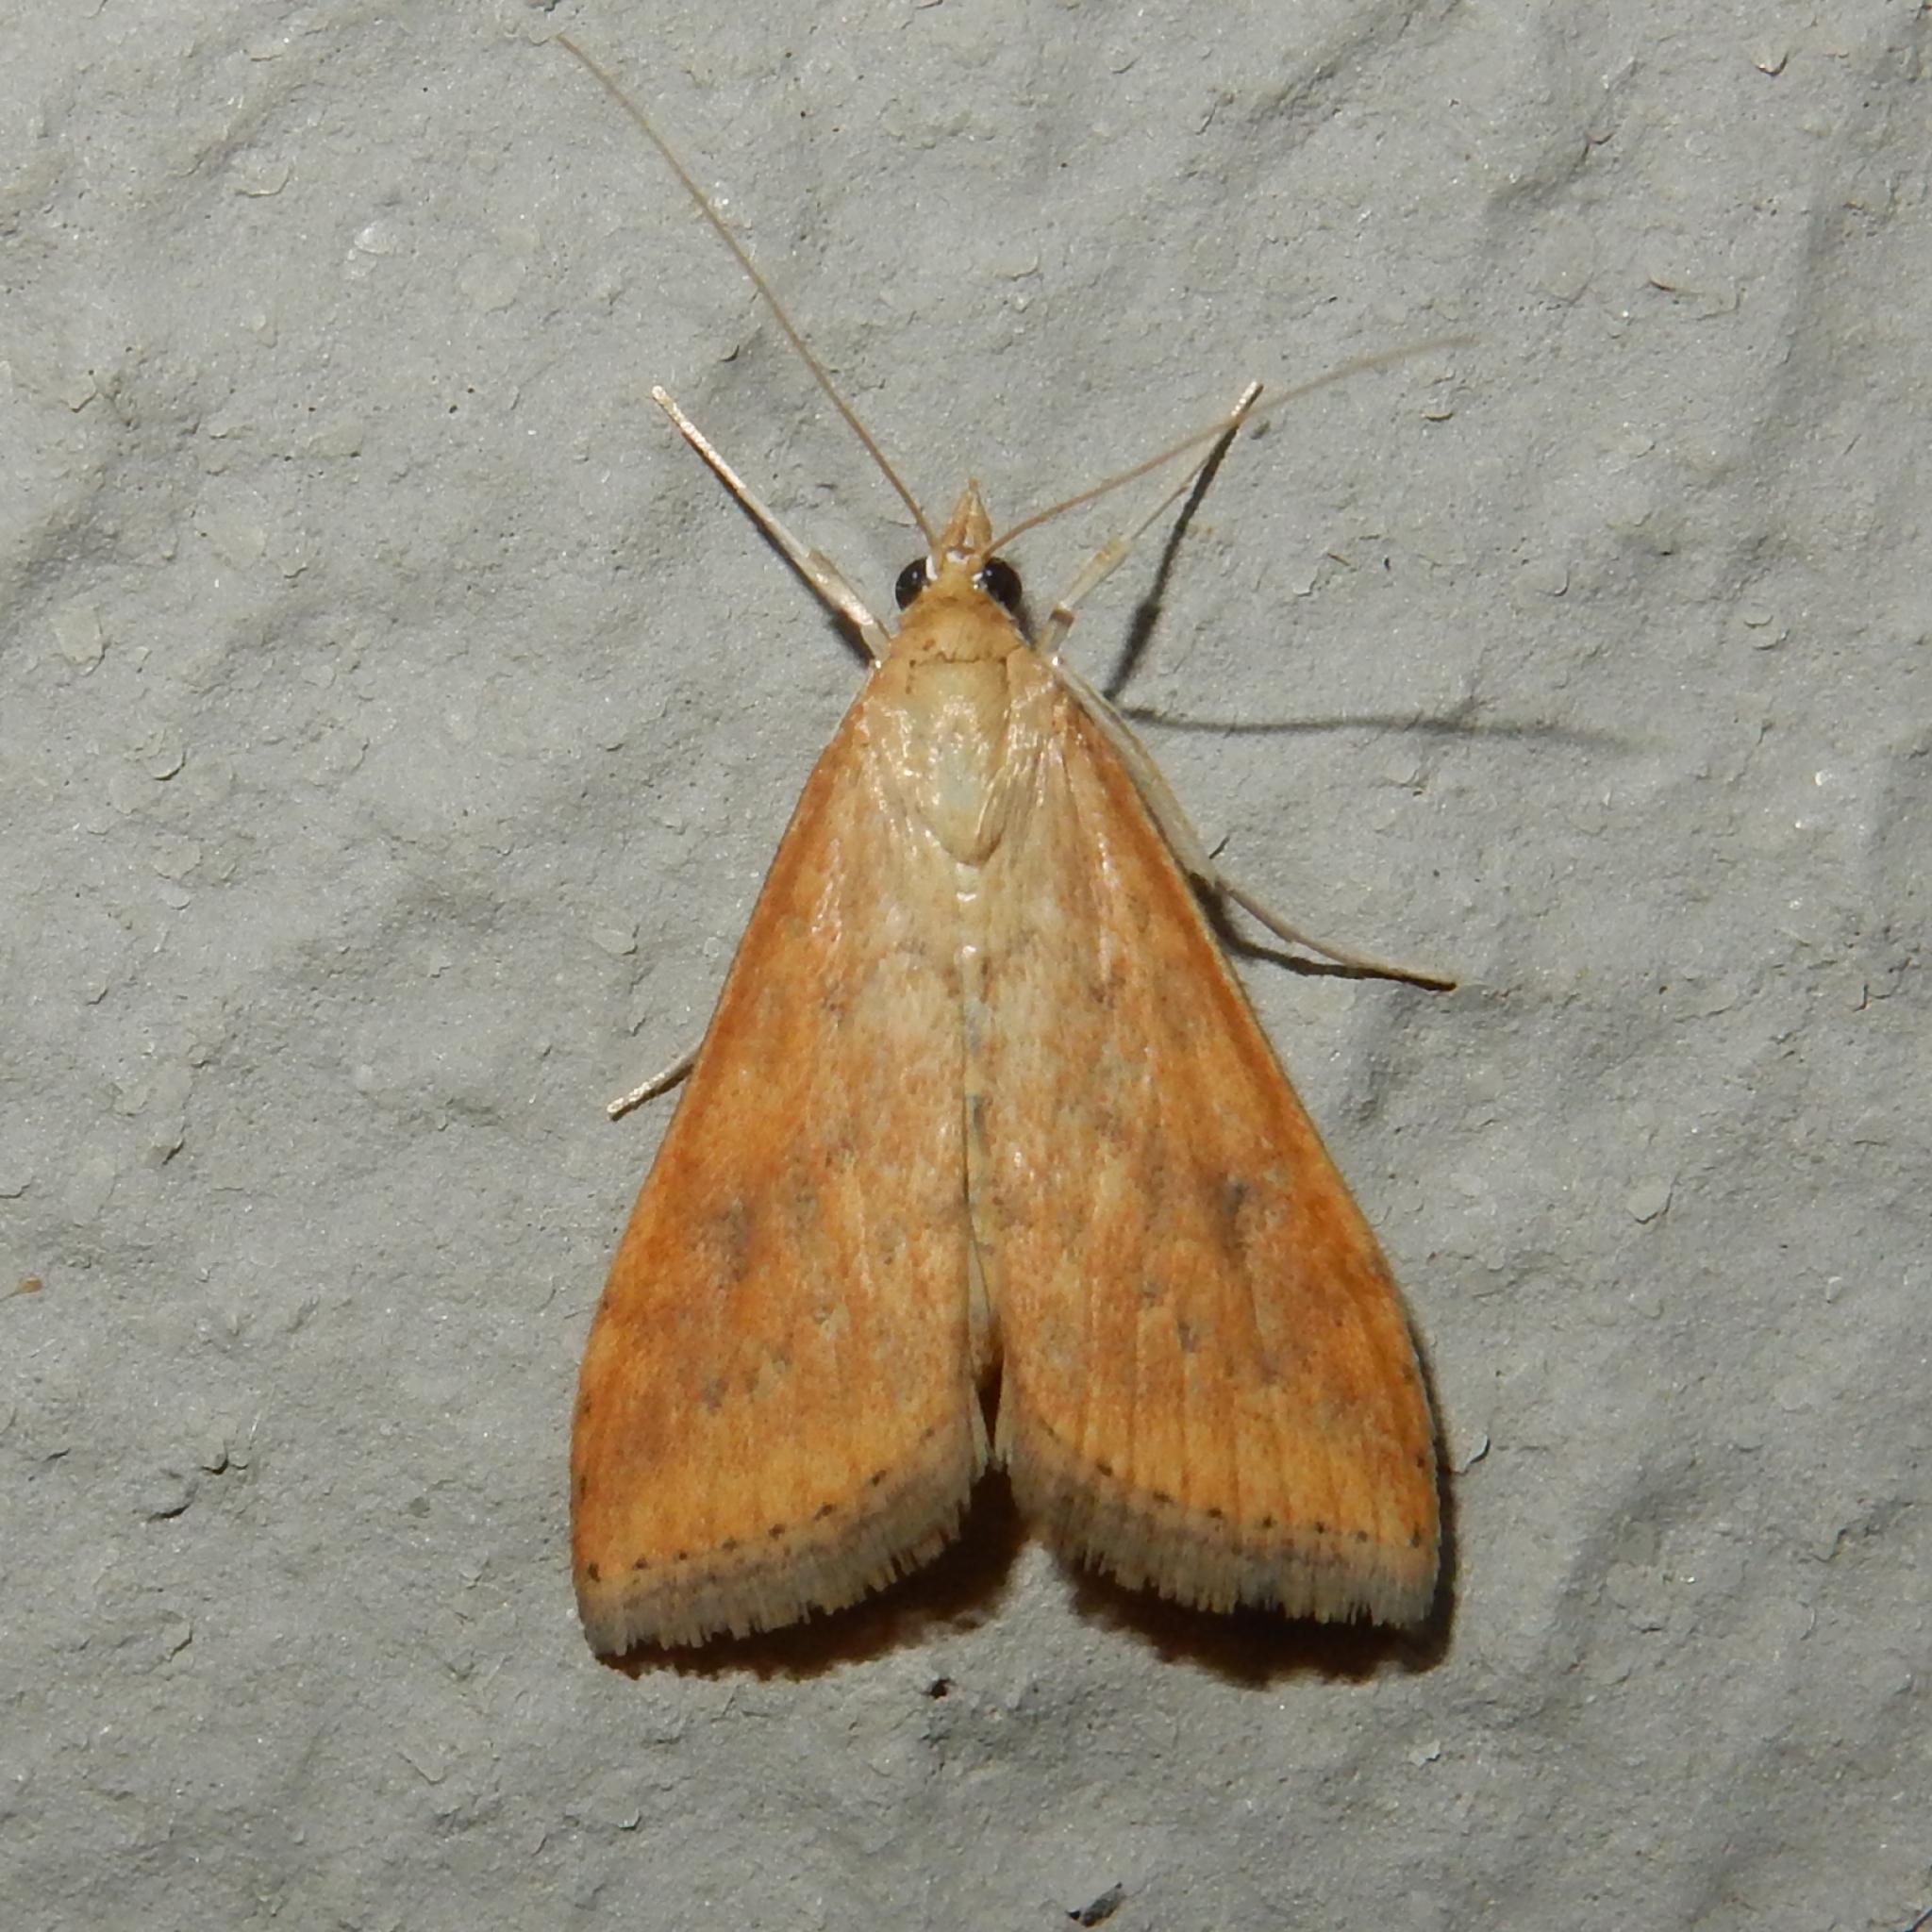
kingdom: Animalia
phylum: Arthropoda
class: Insecta
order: Lepidoptera
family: Crambidae
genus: Udea
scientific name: Udea ferrugalis
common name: Rusty dot
